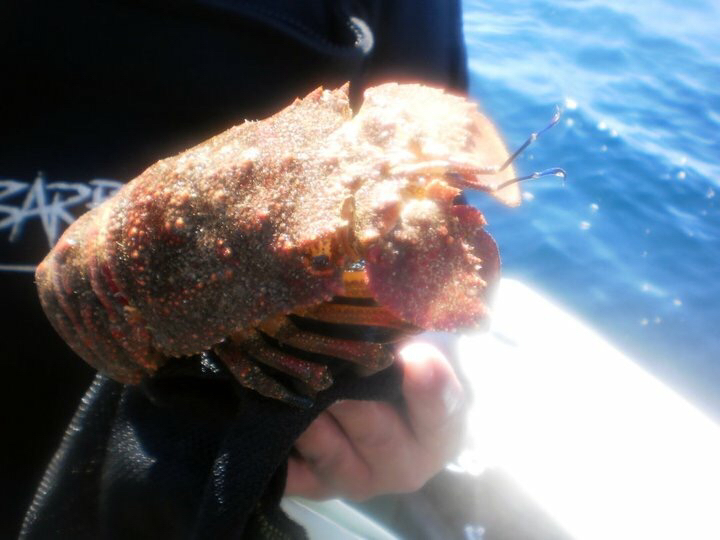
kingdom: Animalia
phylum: Arthropoda
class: Malacostraca
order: Decapoda
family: Scyllaridae
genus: Arctides
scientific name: Arctides antipodarum
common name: Rough spanish lobster
